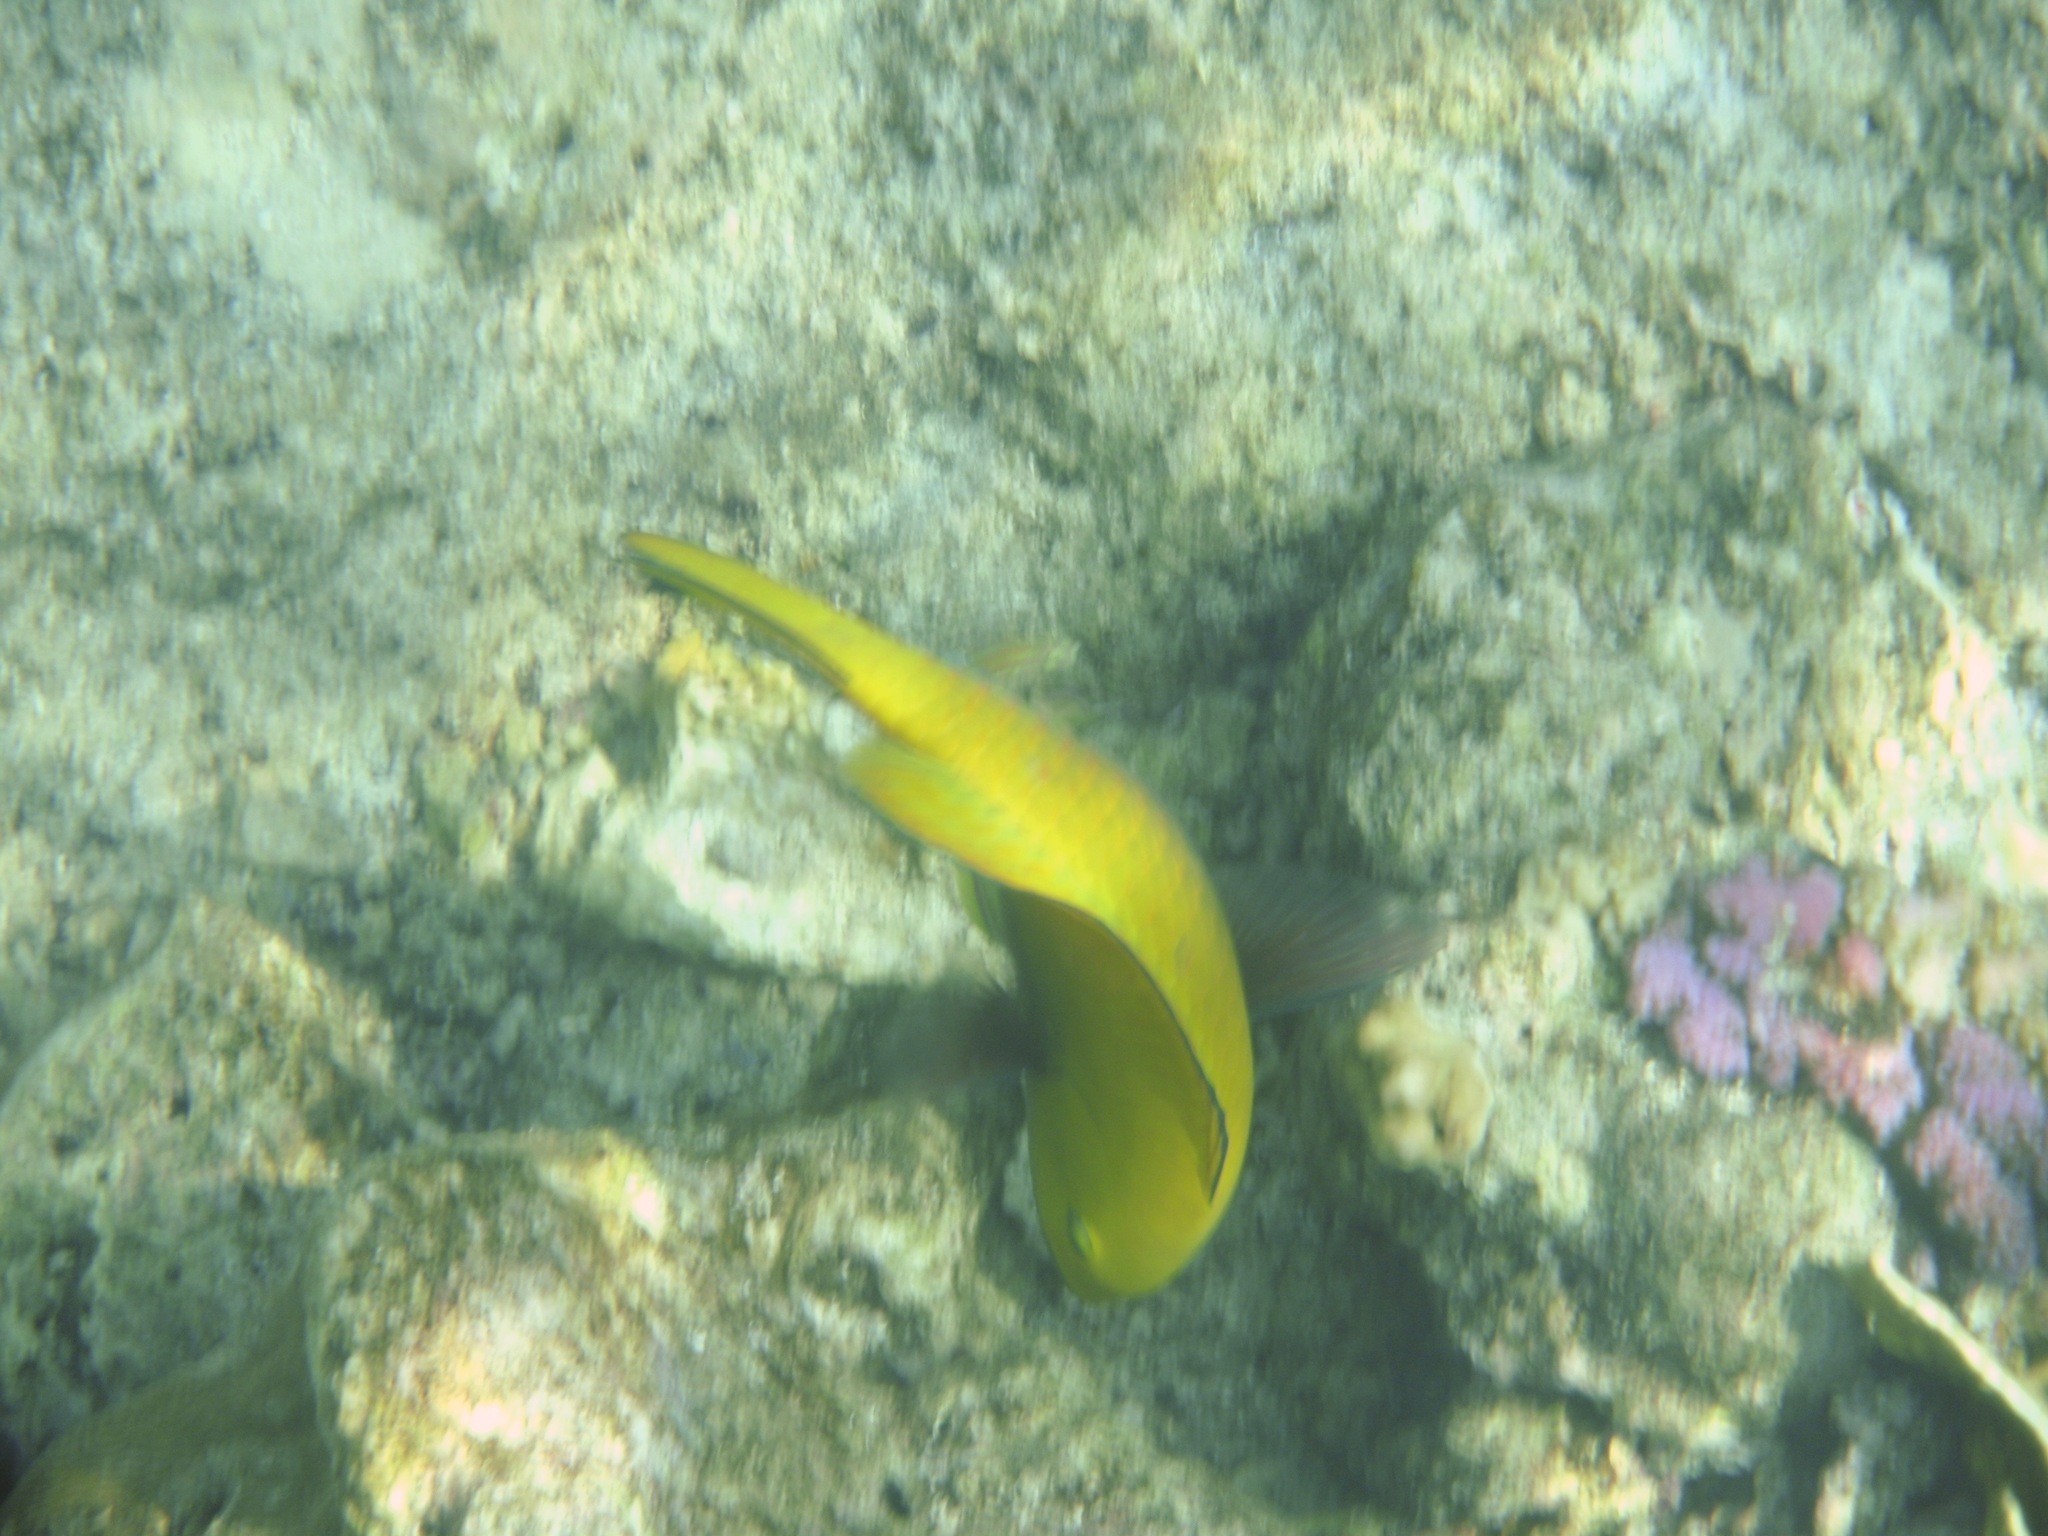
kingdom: Animalia
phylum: Chordata
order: Perciformes
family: Scaridae
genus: Chlorurus
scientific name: Chlorurus gibbus
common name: Heavybeak parrotfish
